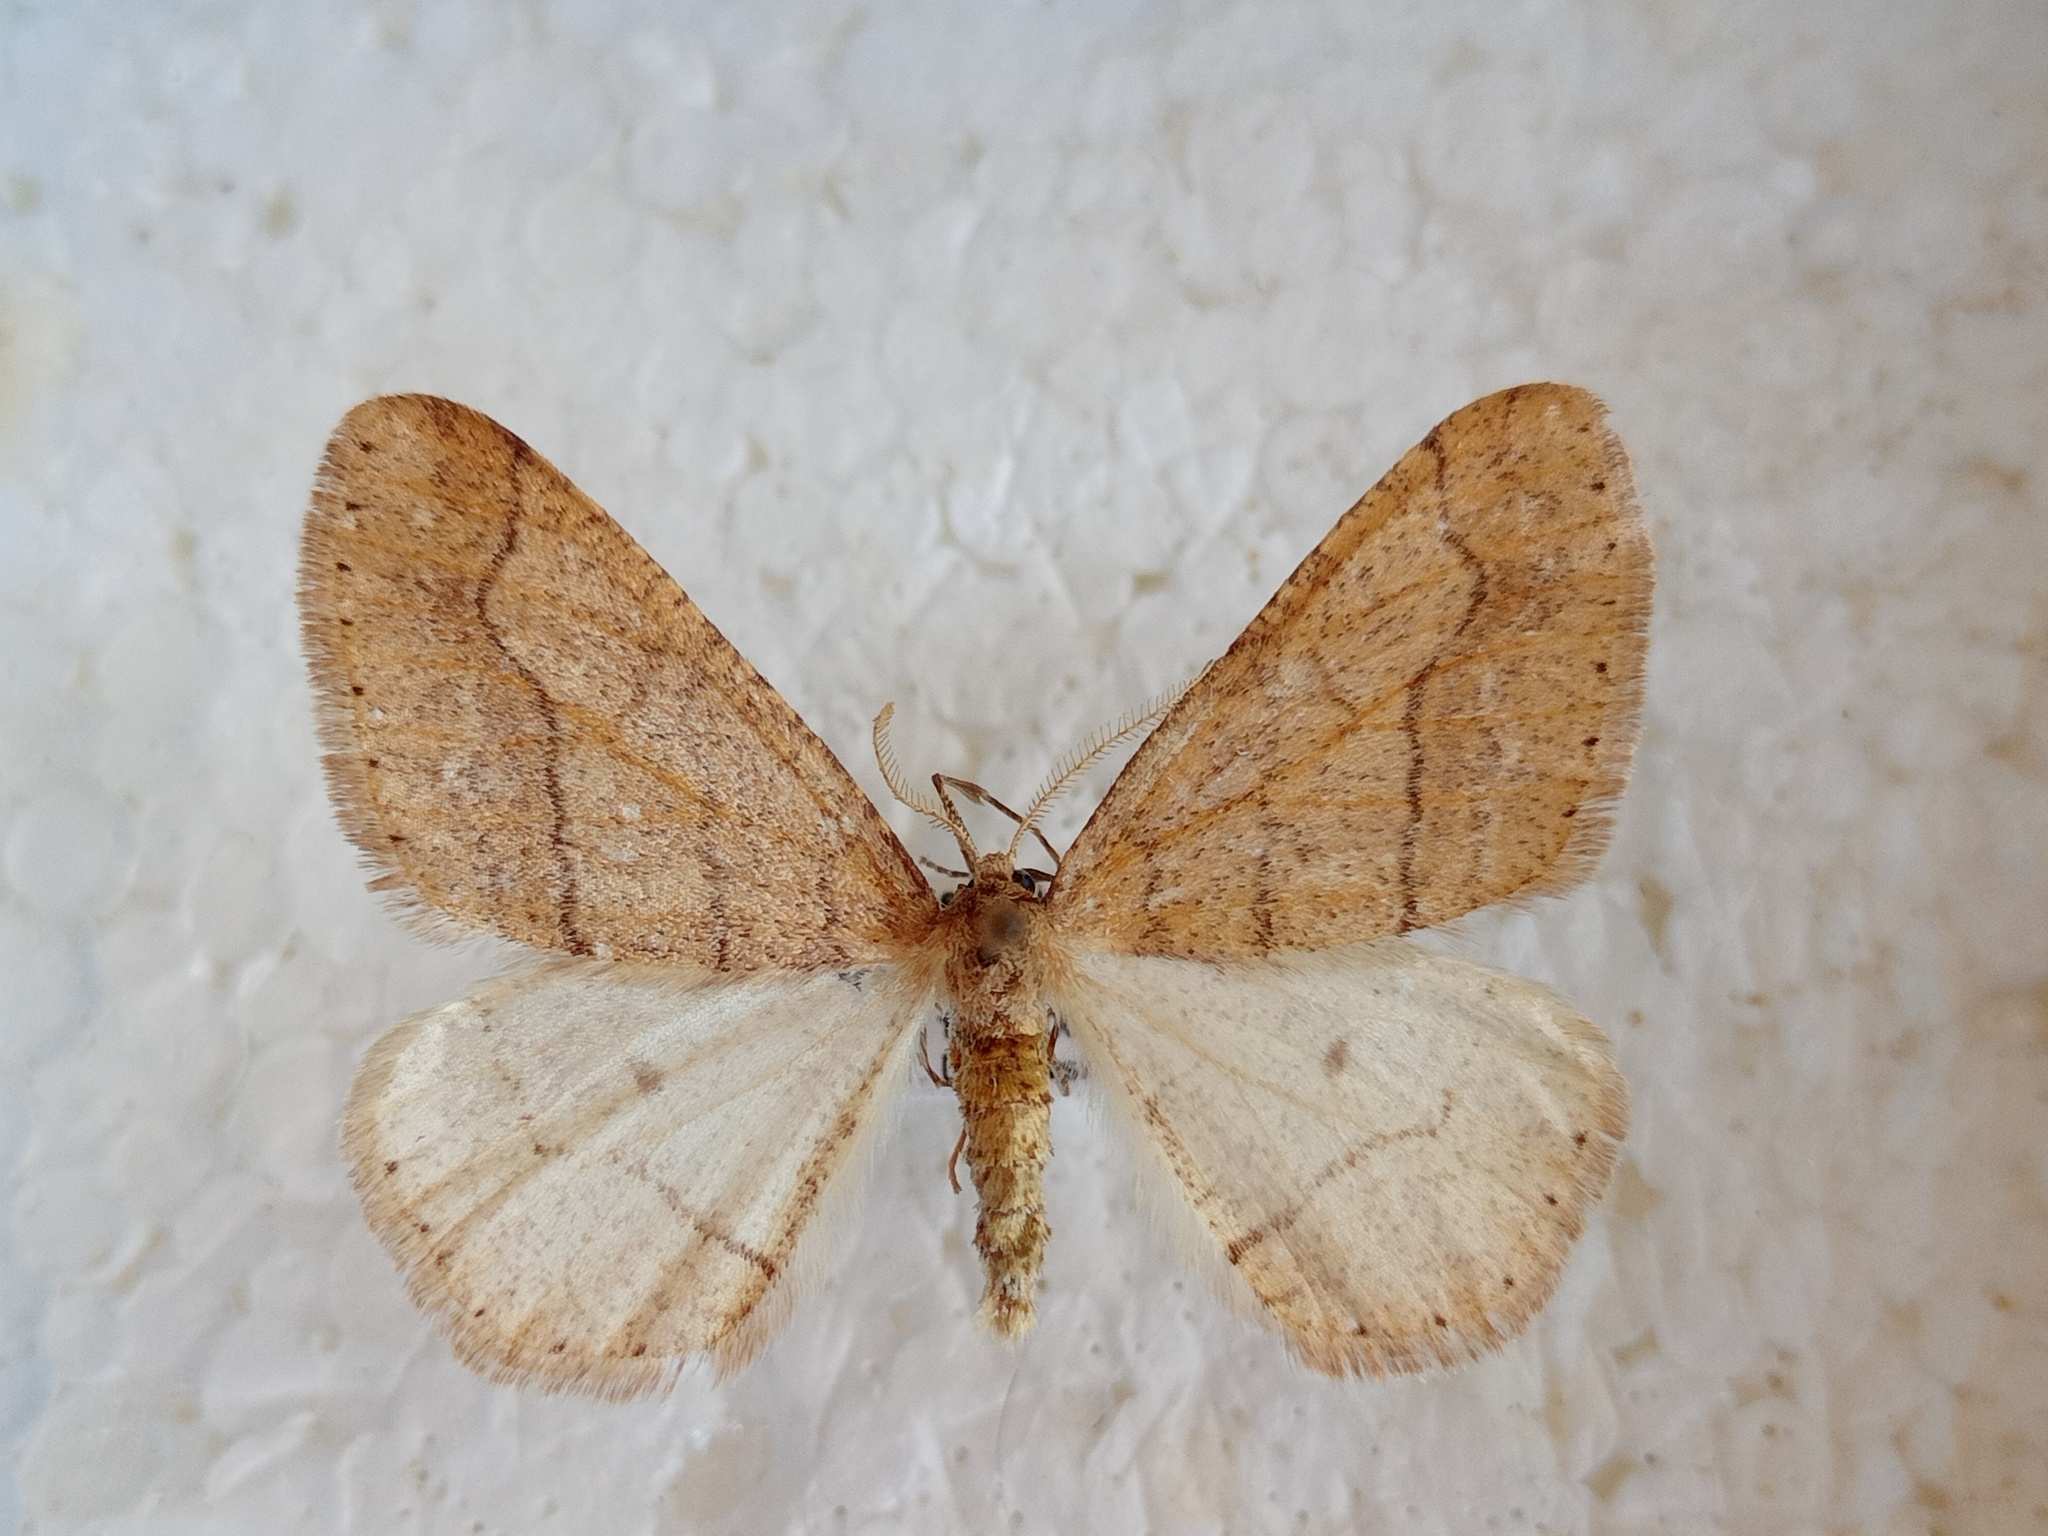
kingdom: Animalia
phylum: Arthropoda
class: Insecta
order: Lepidoptera
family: Geometridae
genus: Agriopis
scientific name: Agriopis marginaria
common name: Dotted border
